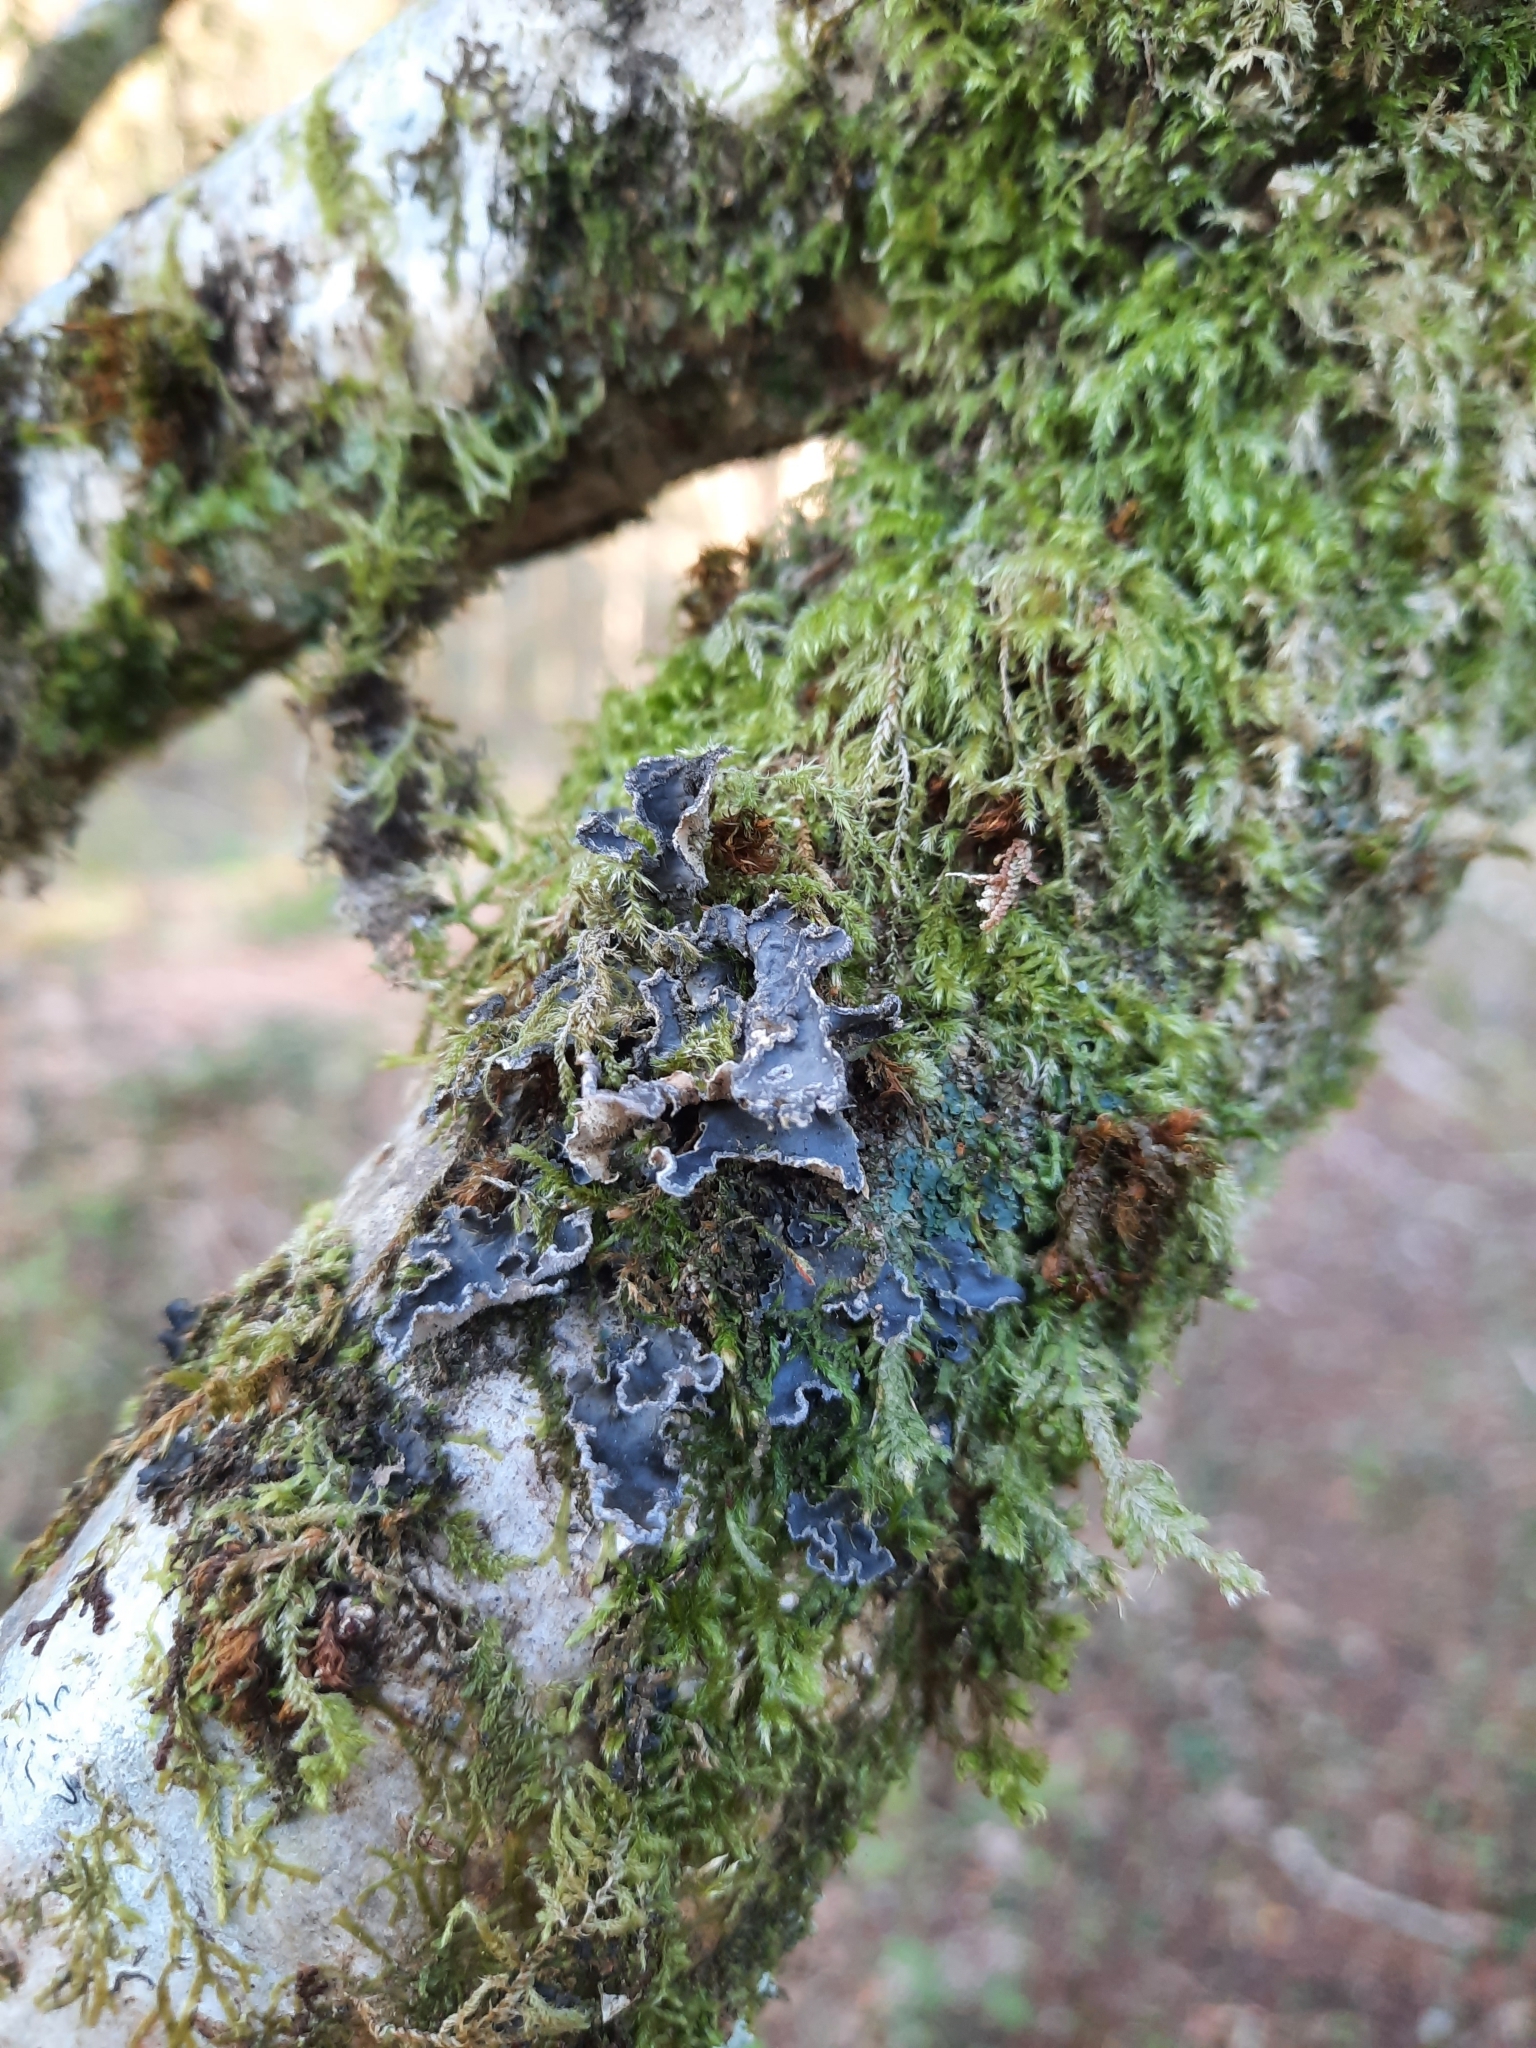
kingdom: Fungi
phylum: Ascomycota
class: Lecanoromycetes
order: Peltigerales
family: Peltigeraceae
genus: Peltigera
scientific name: Peltigera collina
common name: Gritty tree pelt lichen
